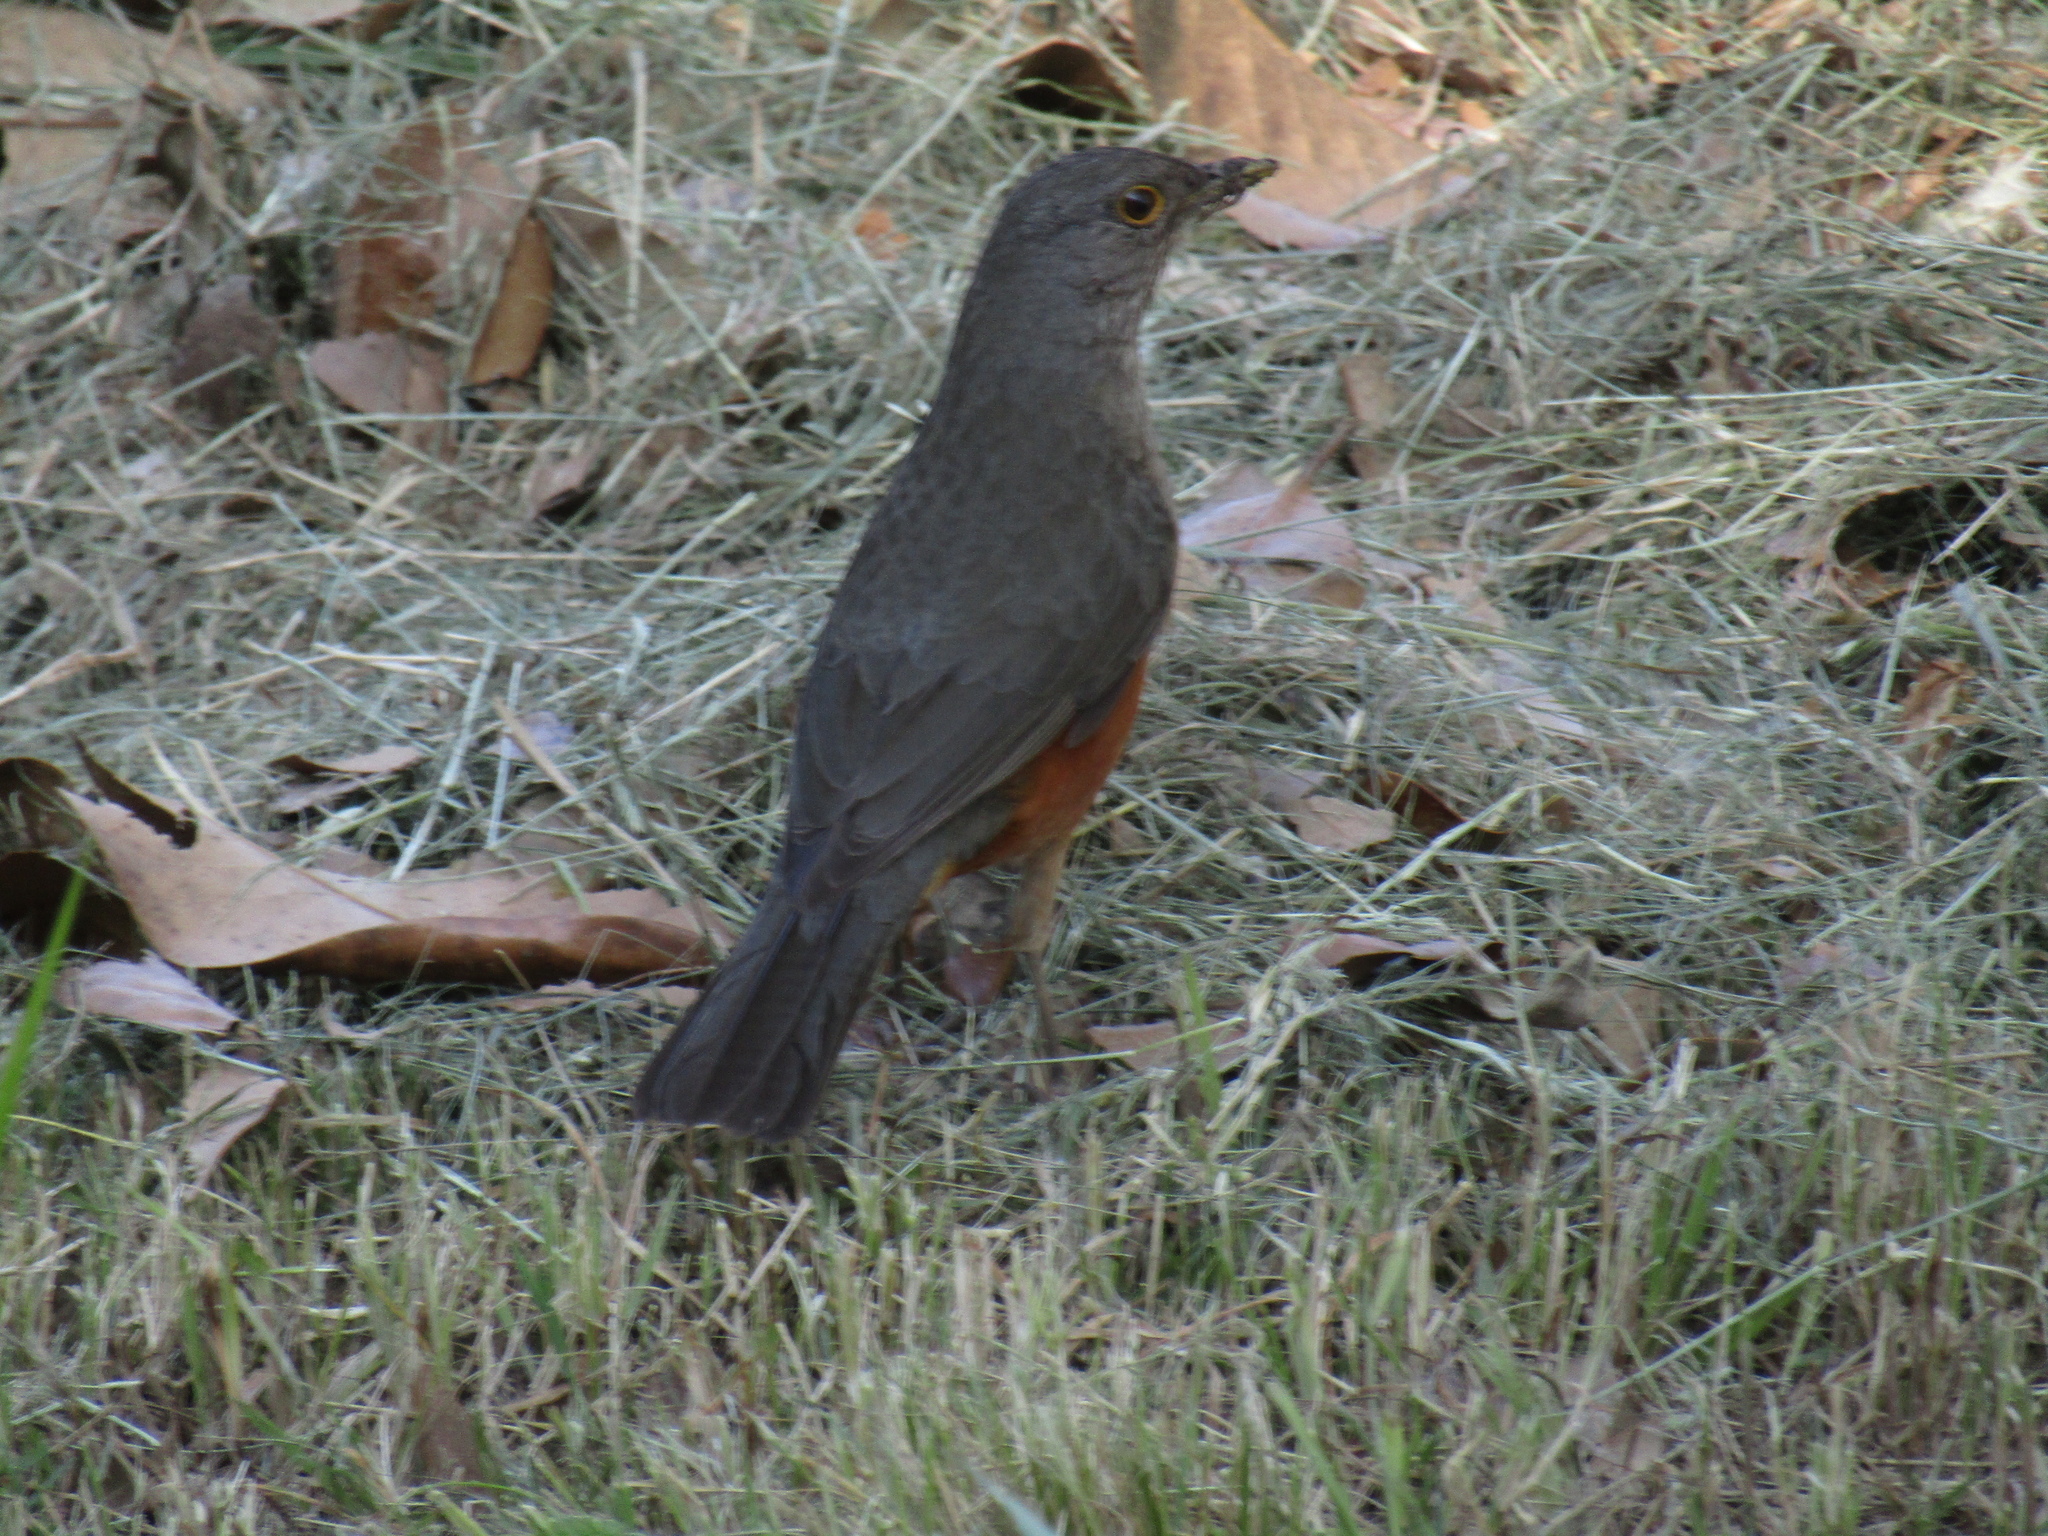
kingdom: Animalia
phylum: Chordata
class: Aves
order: Passeriformes
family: Turdidae
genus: Turdus
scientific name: Turdus rufiventris
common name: Rufous-bellied thrush
